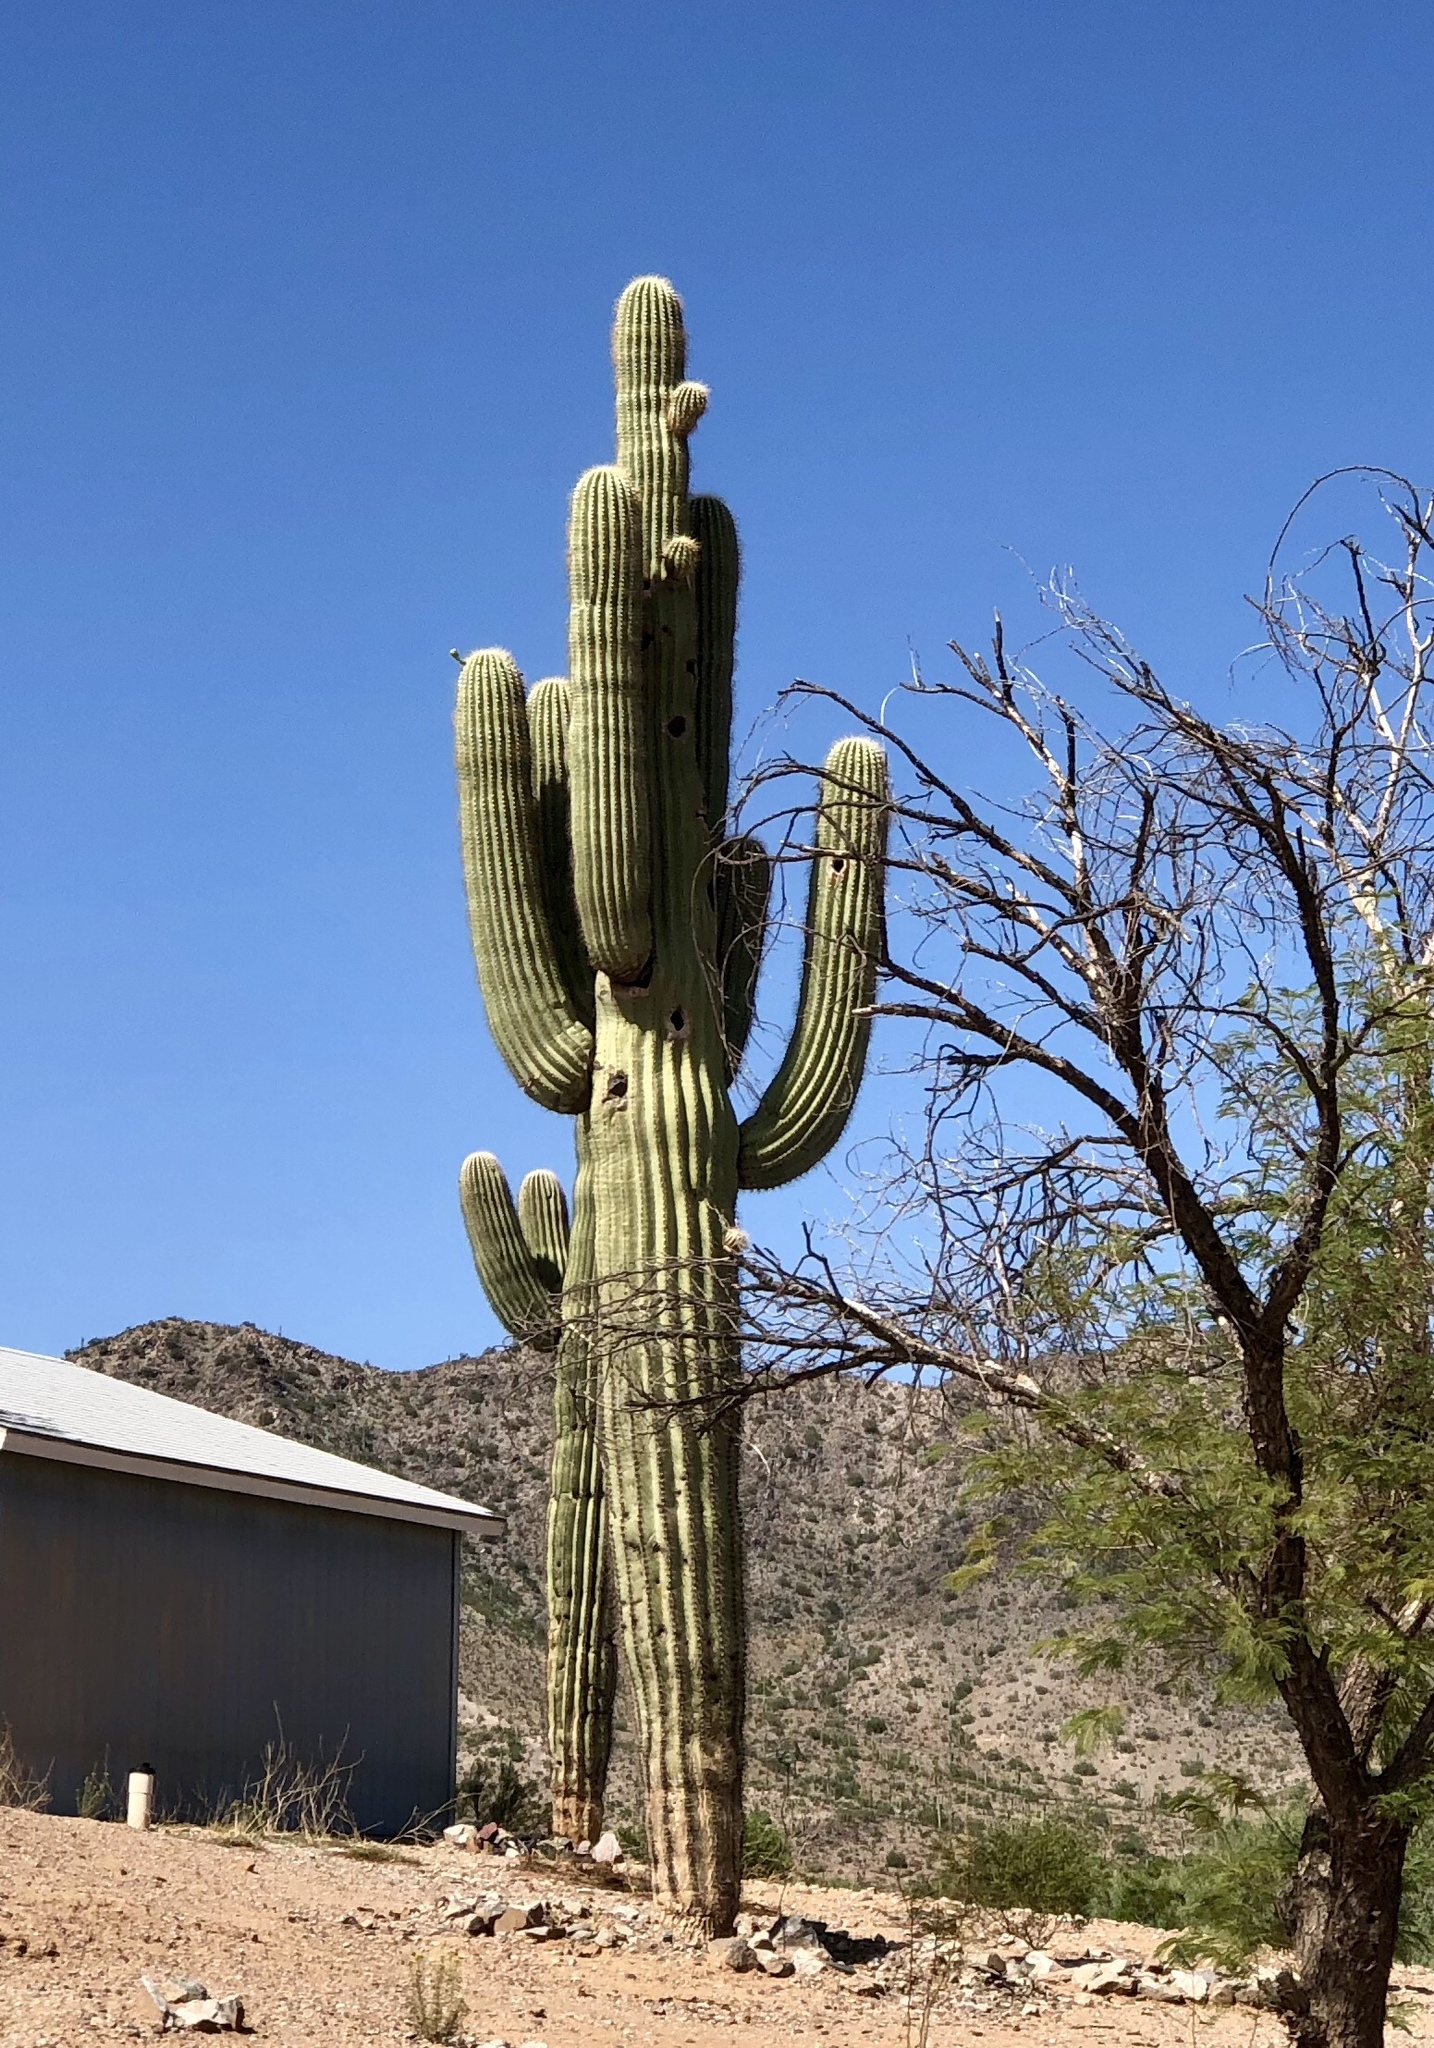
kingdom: Plantae
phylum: Tracheophyta
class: Magnoliopsida
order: Caryophyllales
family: Cactaceae
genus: Carnegiea
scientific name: Carnegiea gigantea
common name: Saguaro
